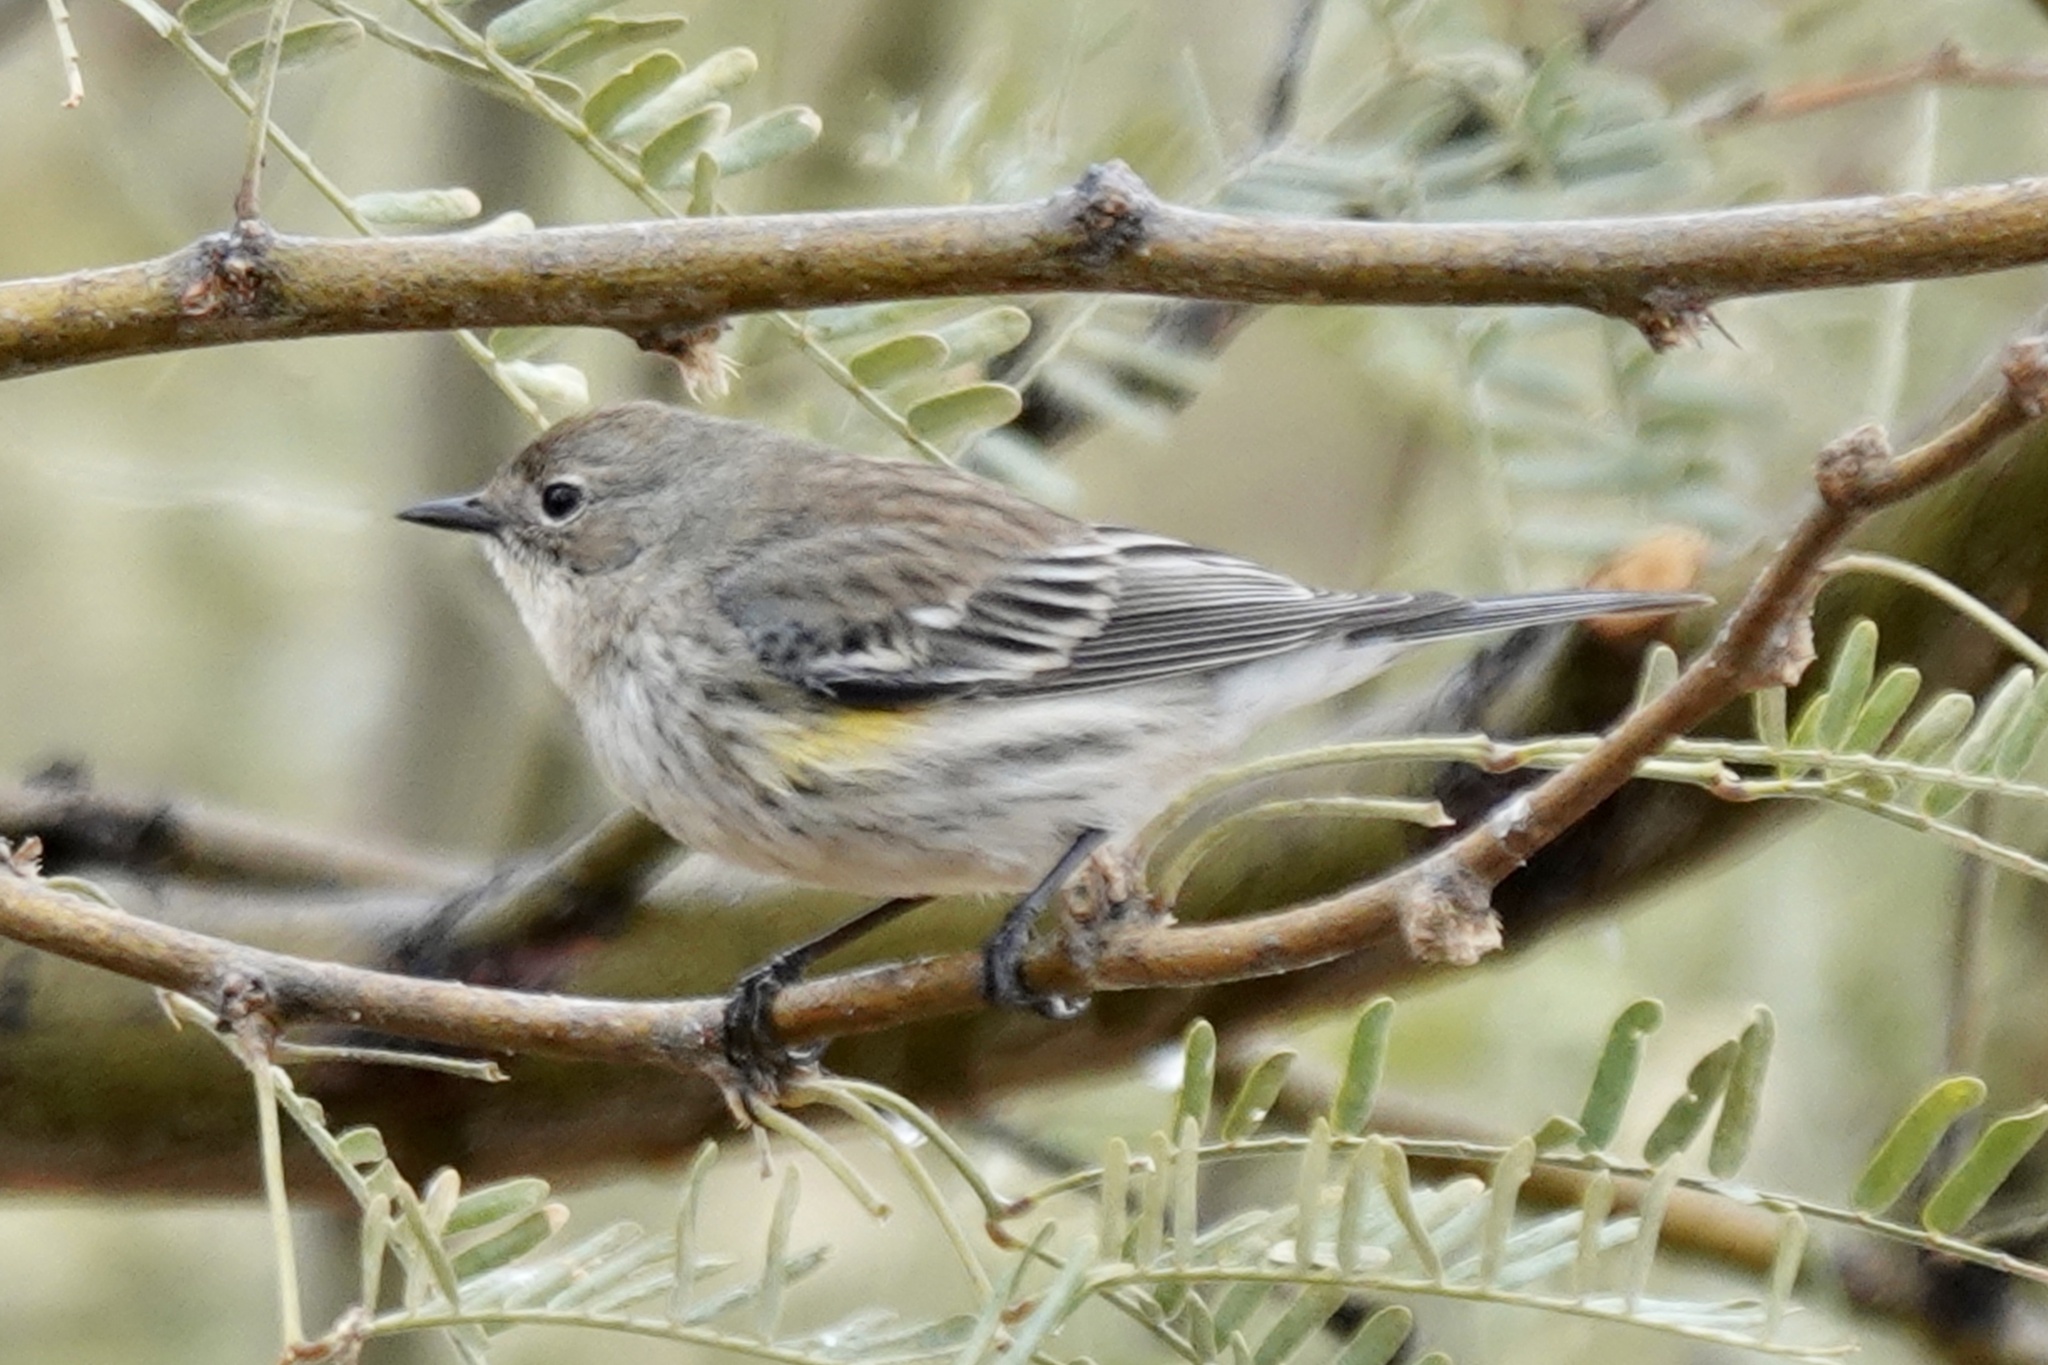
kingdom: Animalia
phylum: Chordata
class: Aves
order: Passeriformes
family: Parulidae
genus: Setophaga
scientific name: Setophaga coronata
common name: Myrtle warbler
